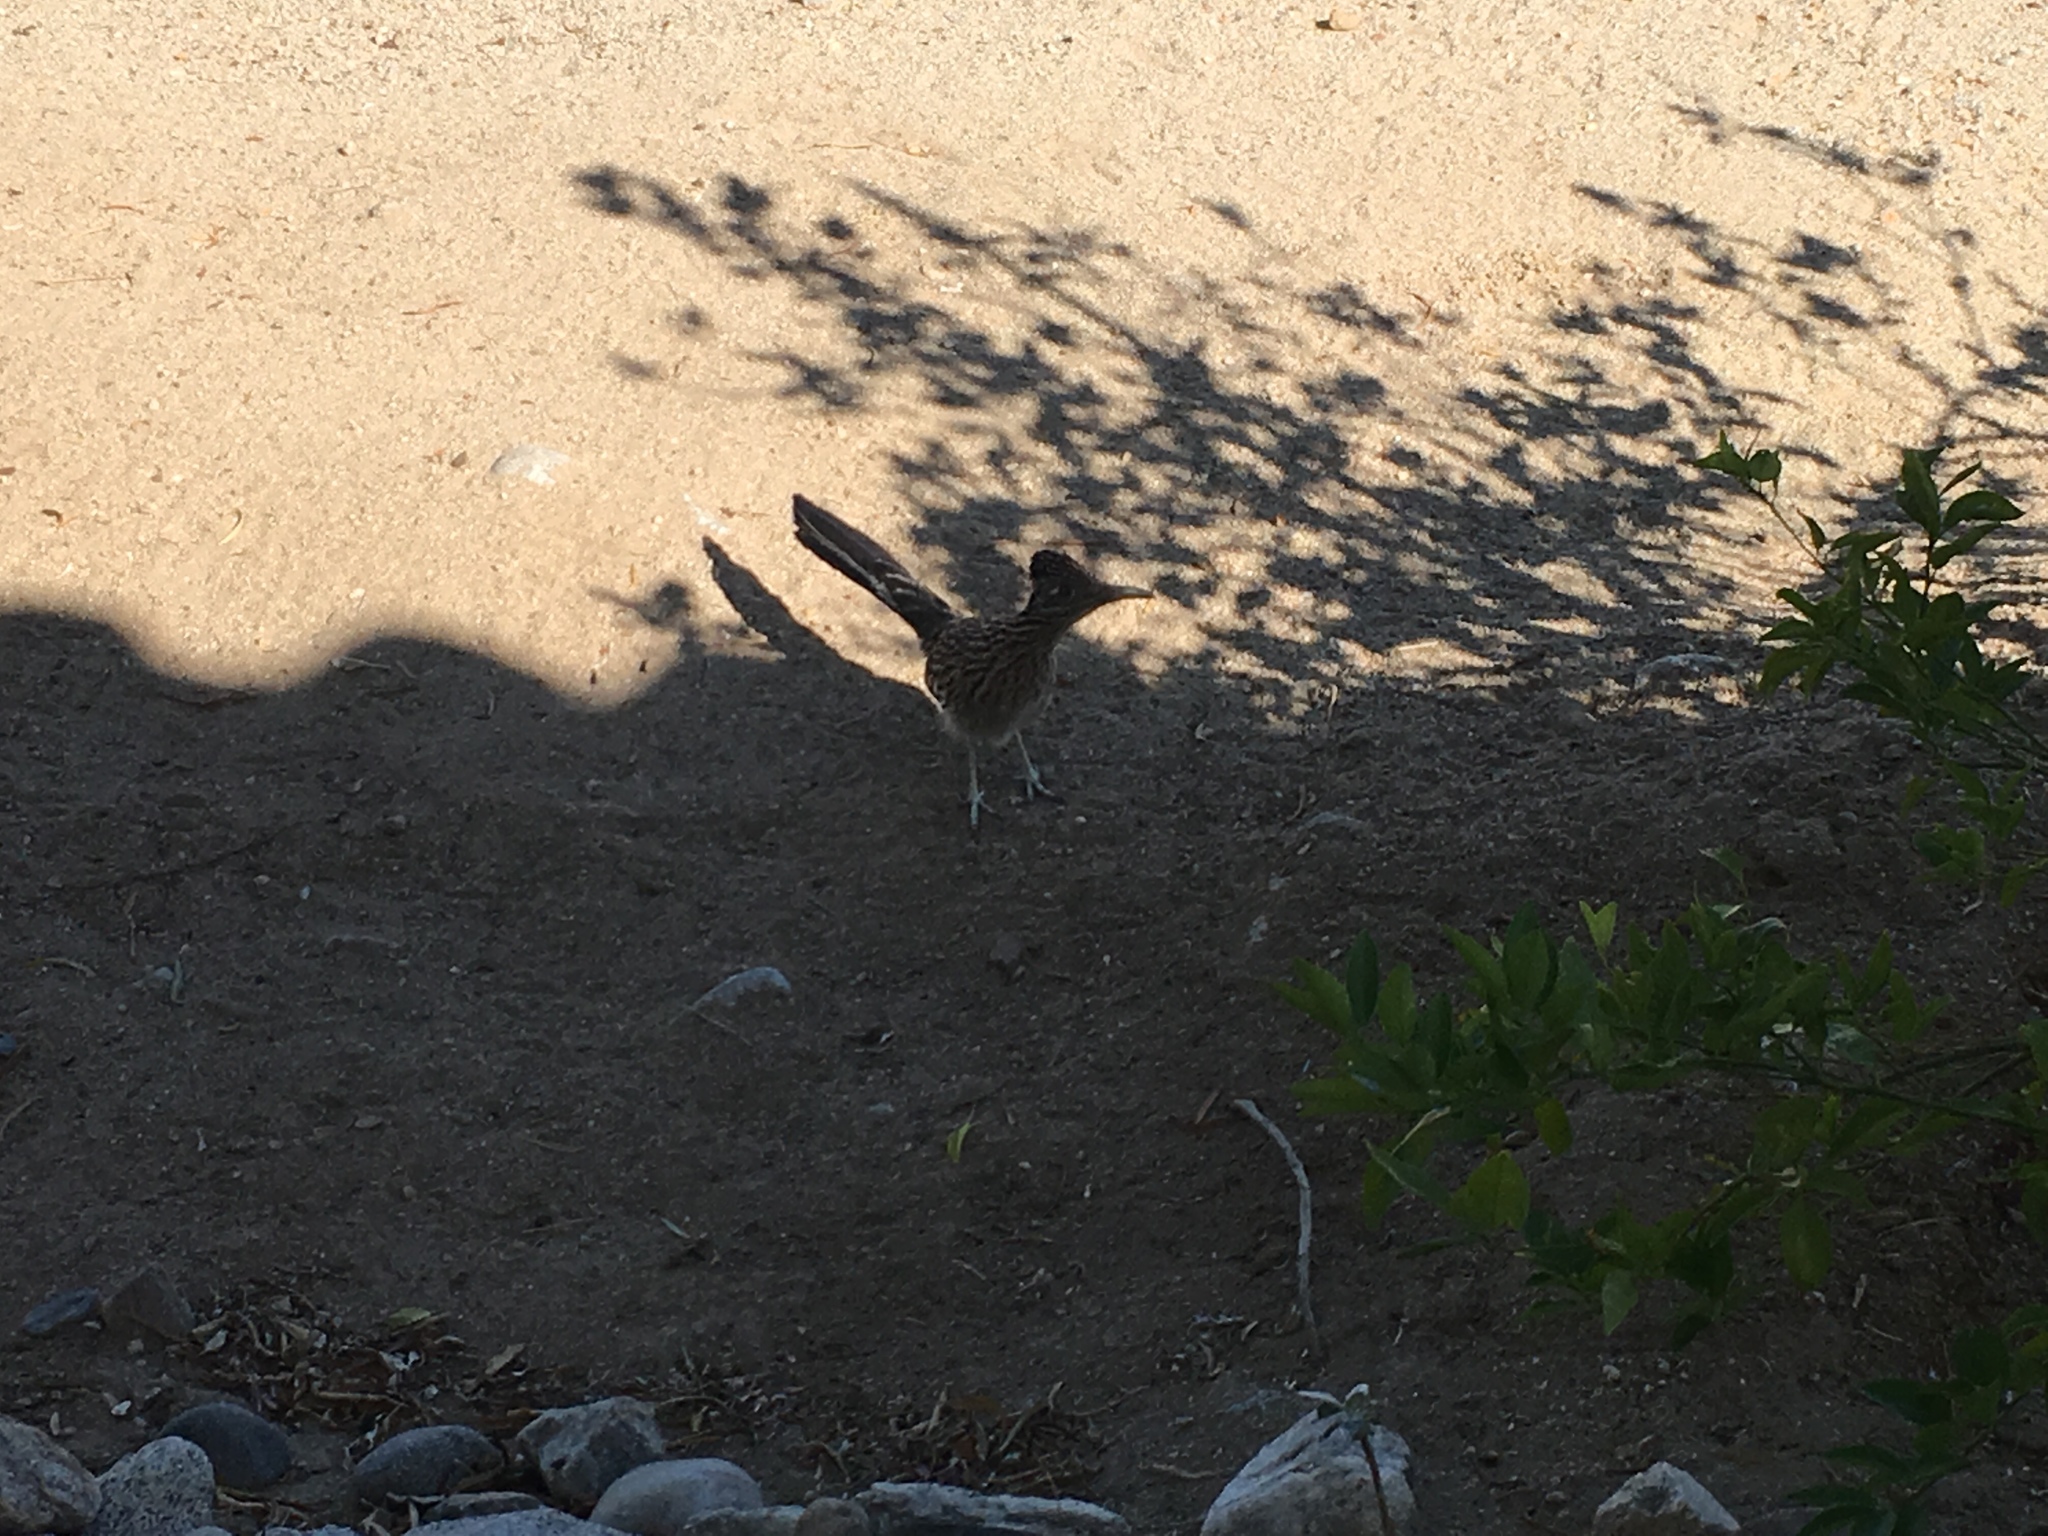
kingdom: Animalia
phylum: Chordata
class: Aves
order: Cuculiformes
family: Cuculidae
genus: Geococcyx
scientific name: Geococcyx californianus
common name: Greater roadrunner
